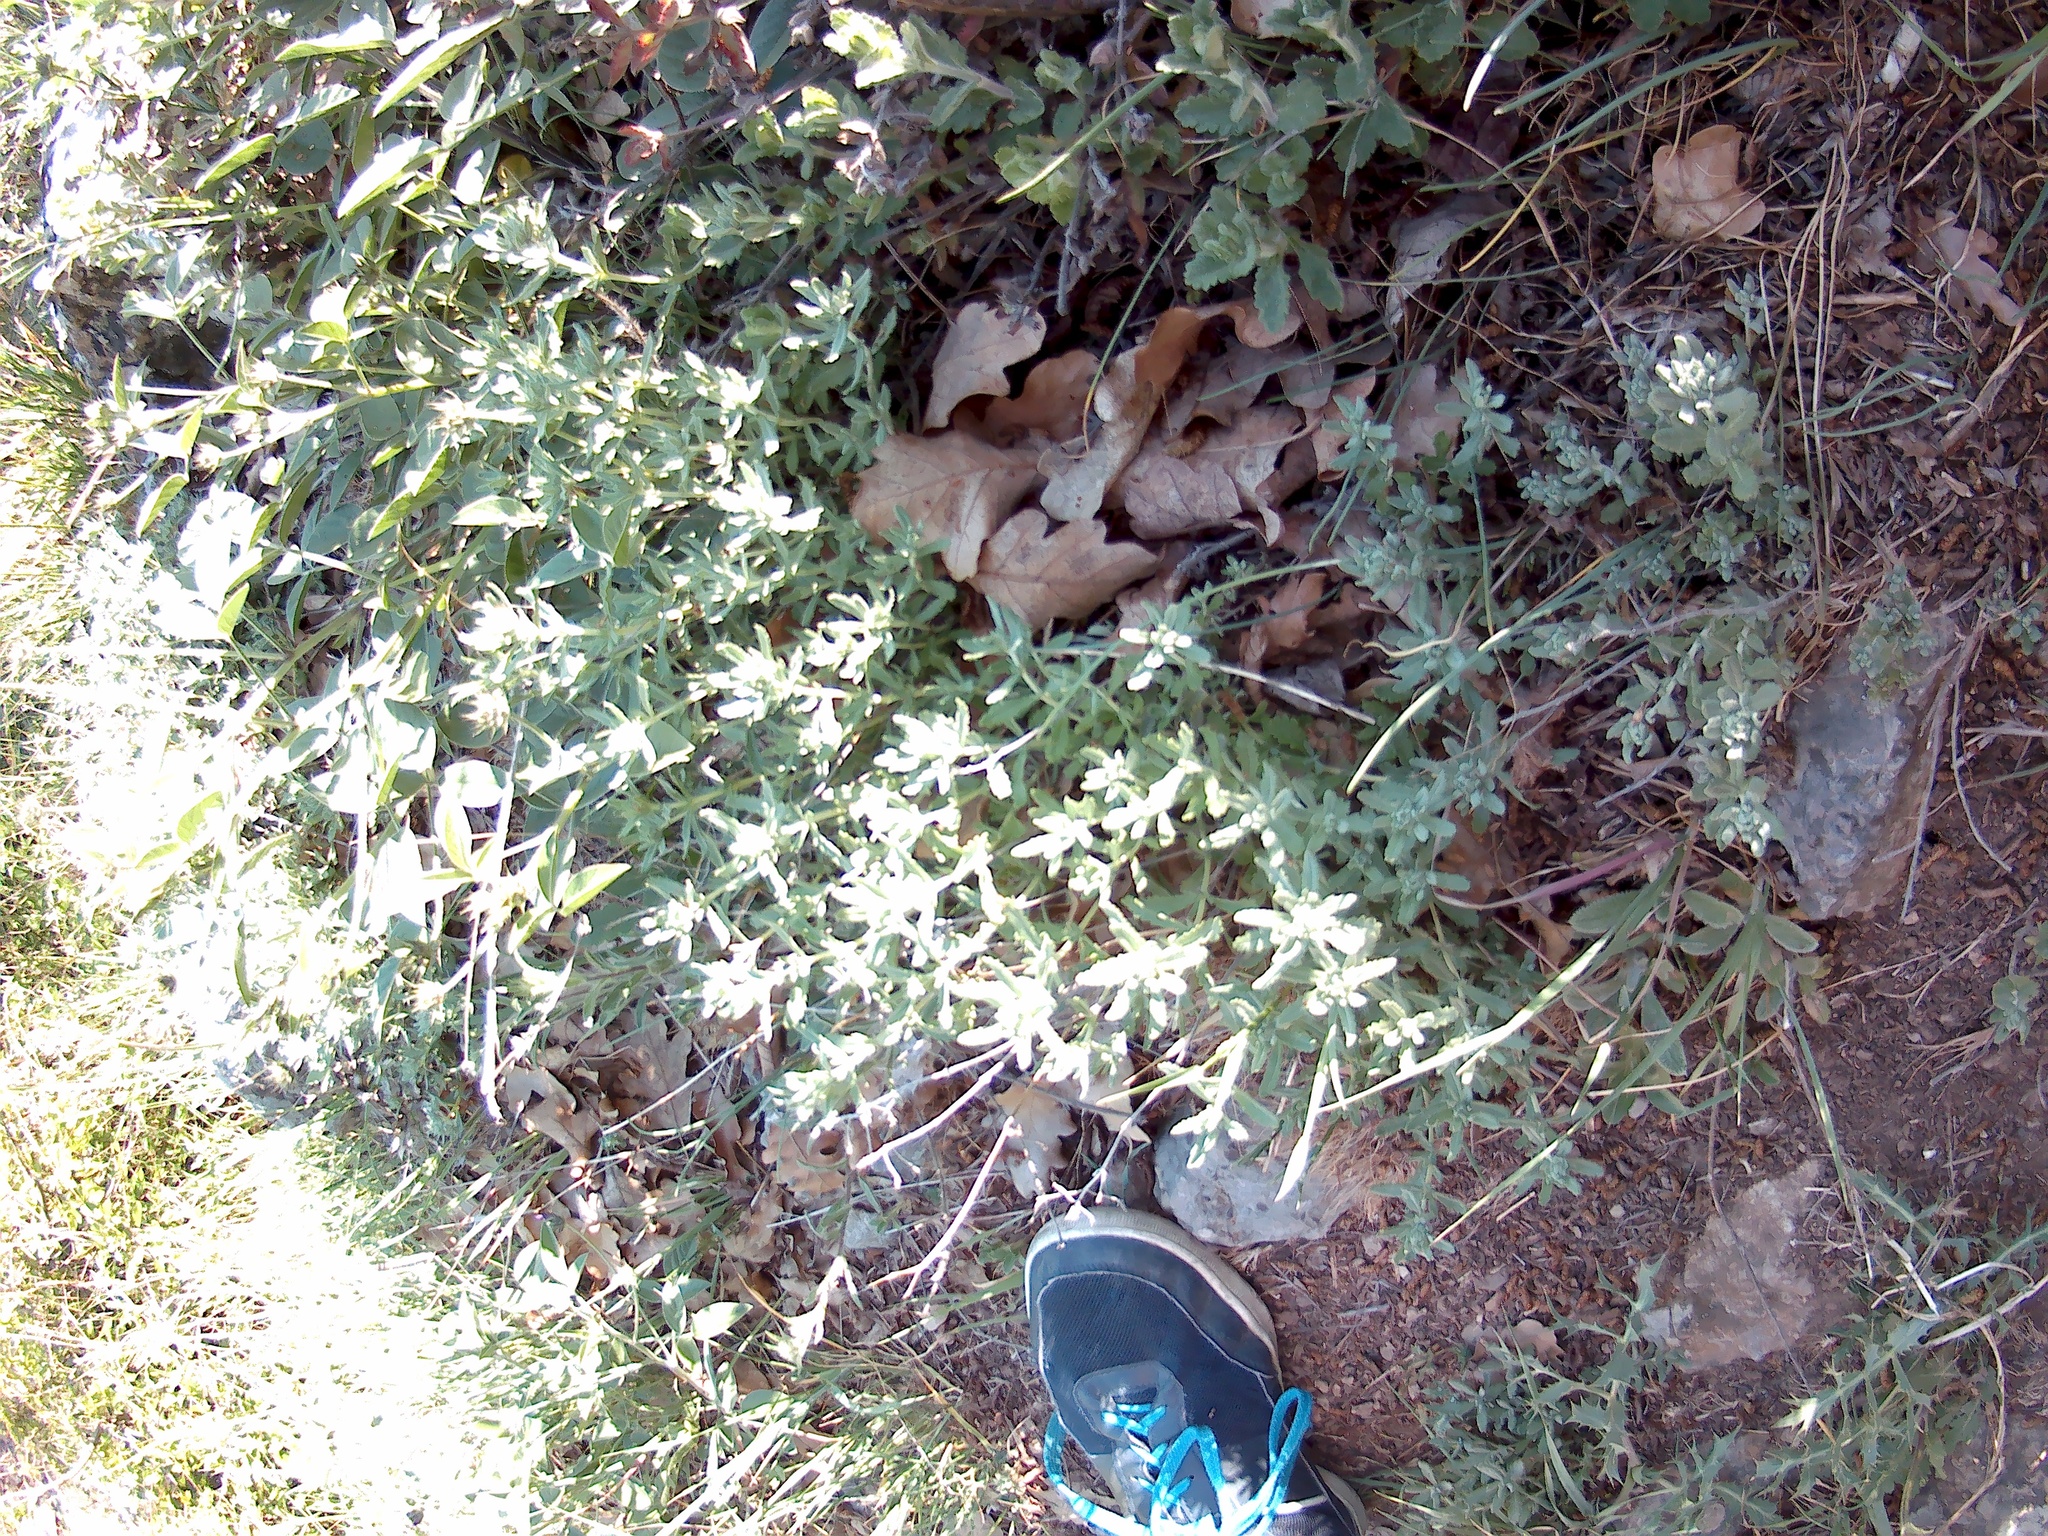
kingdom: Plantae
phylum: Tracheophyta
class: Magnoliopsida
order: Lamiales
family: Lamiaceae
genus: Teucrium
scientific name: Teucrium polium
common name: Poley
